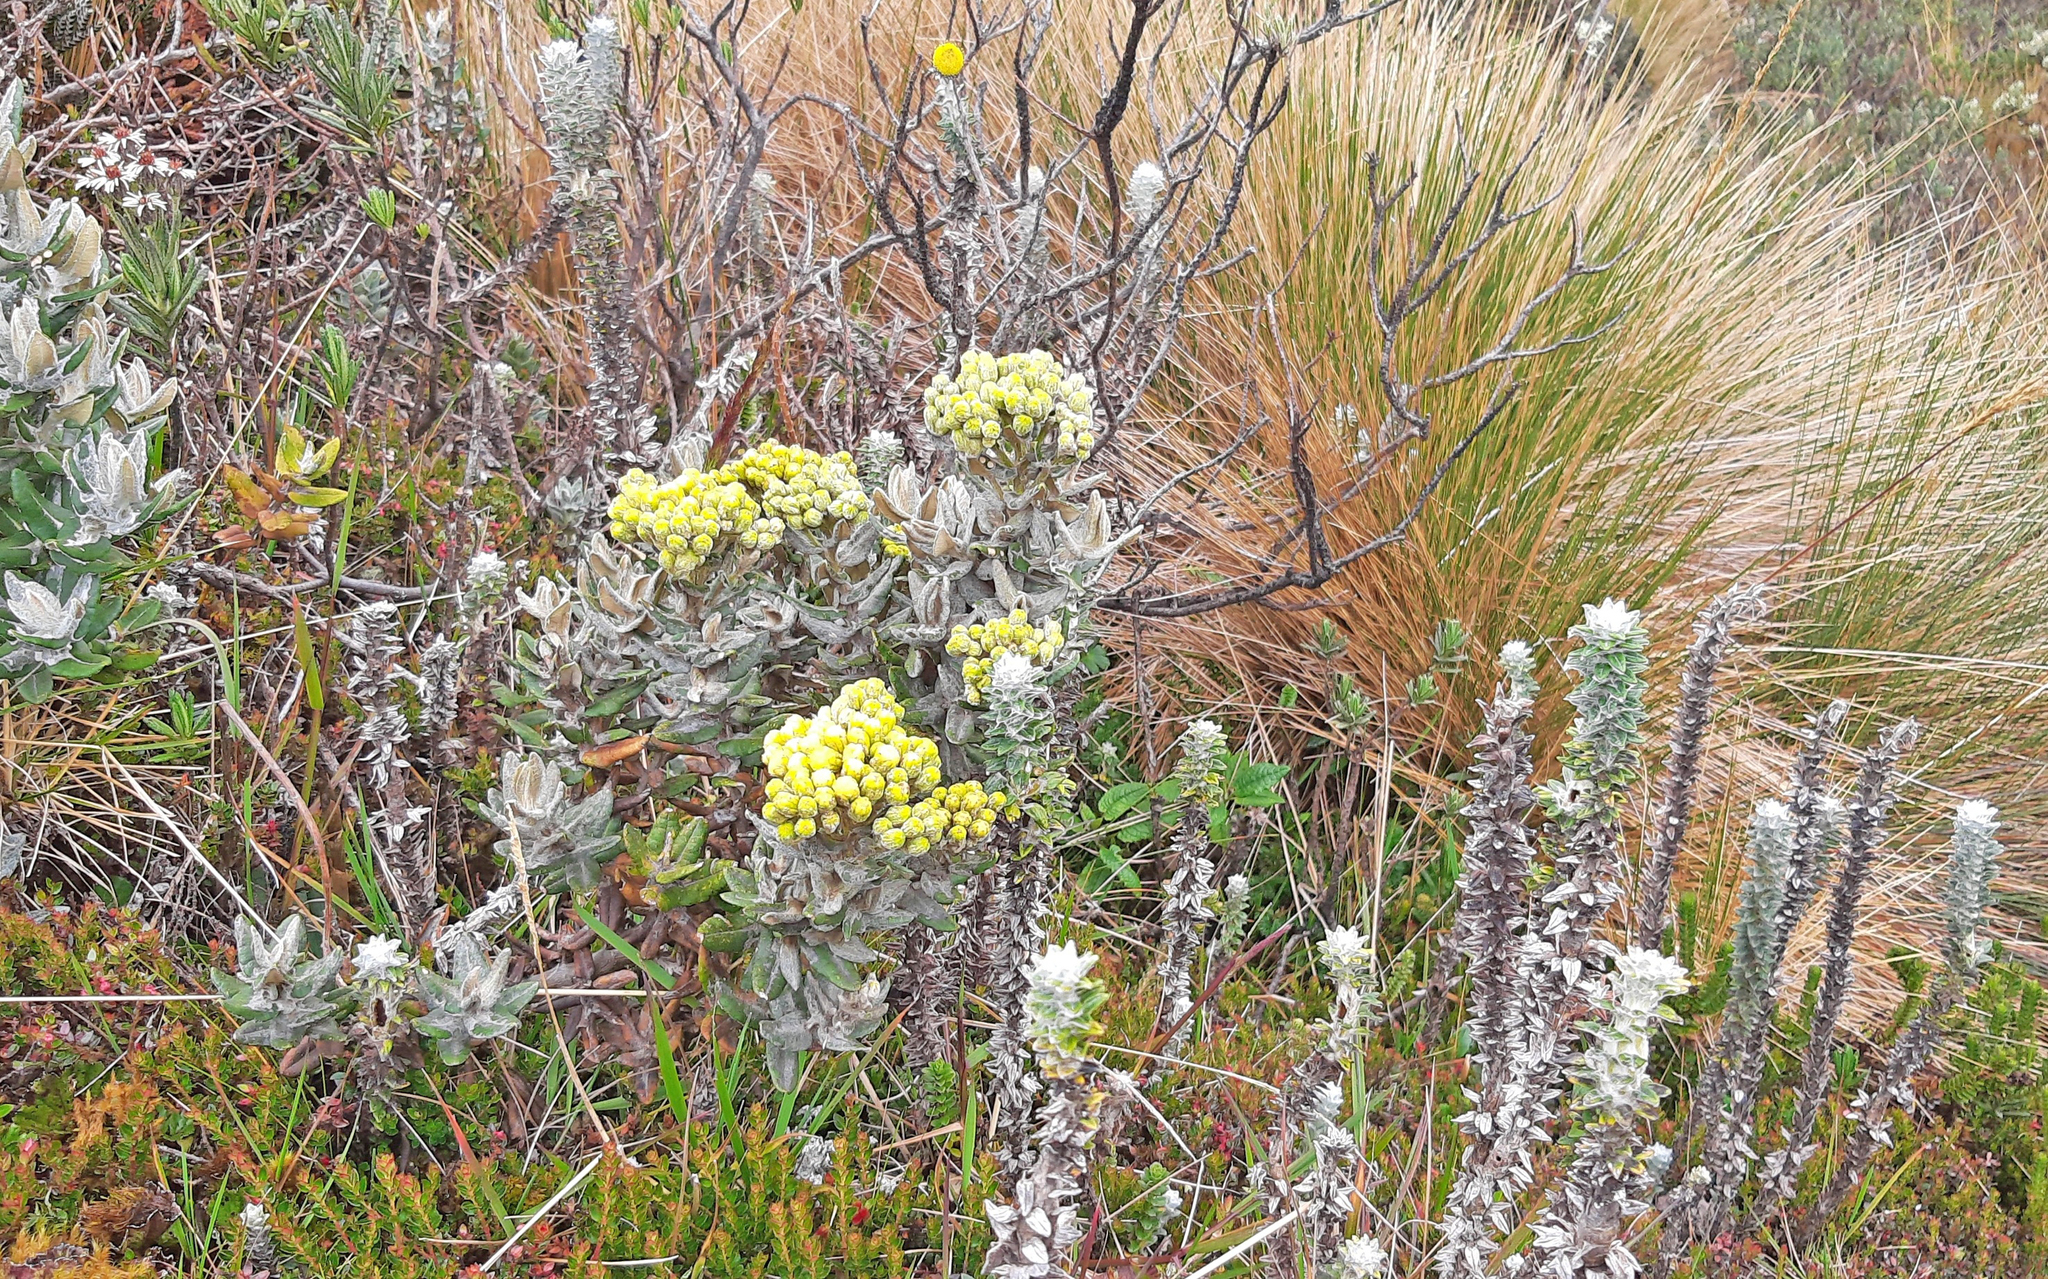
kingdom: Plantae
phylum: Tracheophyta
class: Magnoliopsida
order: Asterales
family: Asteraceae
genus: Monticalia
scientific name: Monticalia andicola
